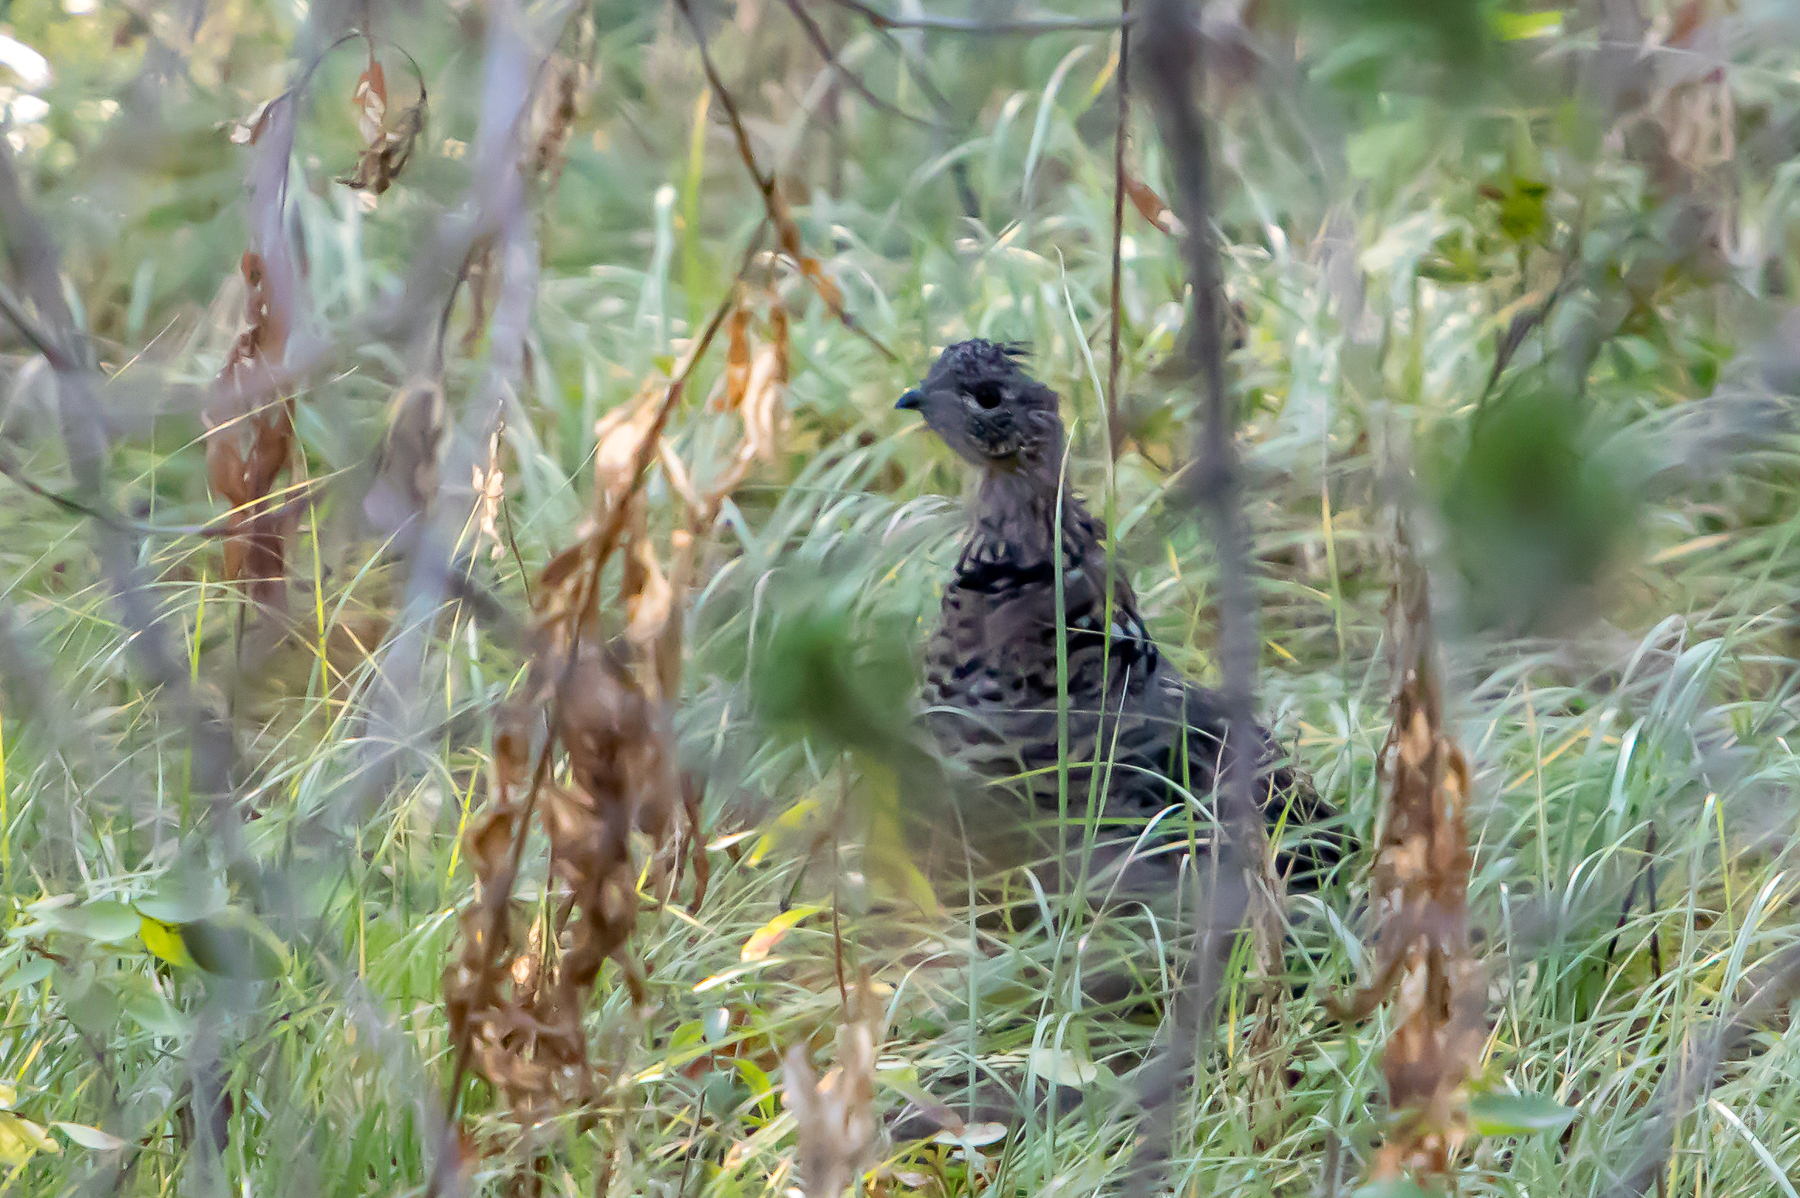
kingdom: Animalia
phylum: Chordata
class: Aves
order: Galliformes
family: Phasianidae
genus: Bonasa
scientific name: Bonasa umbellus
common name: Ruffed grouse
